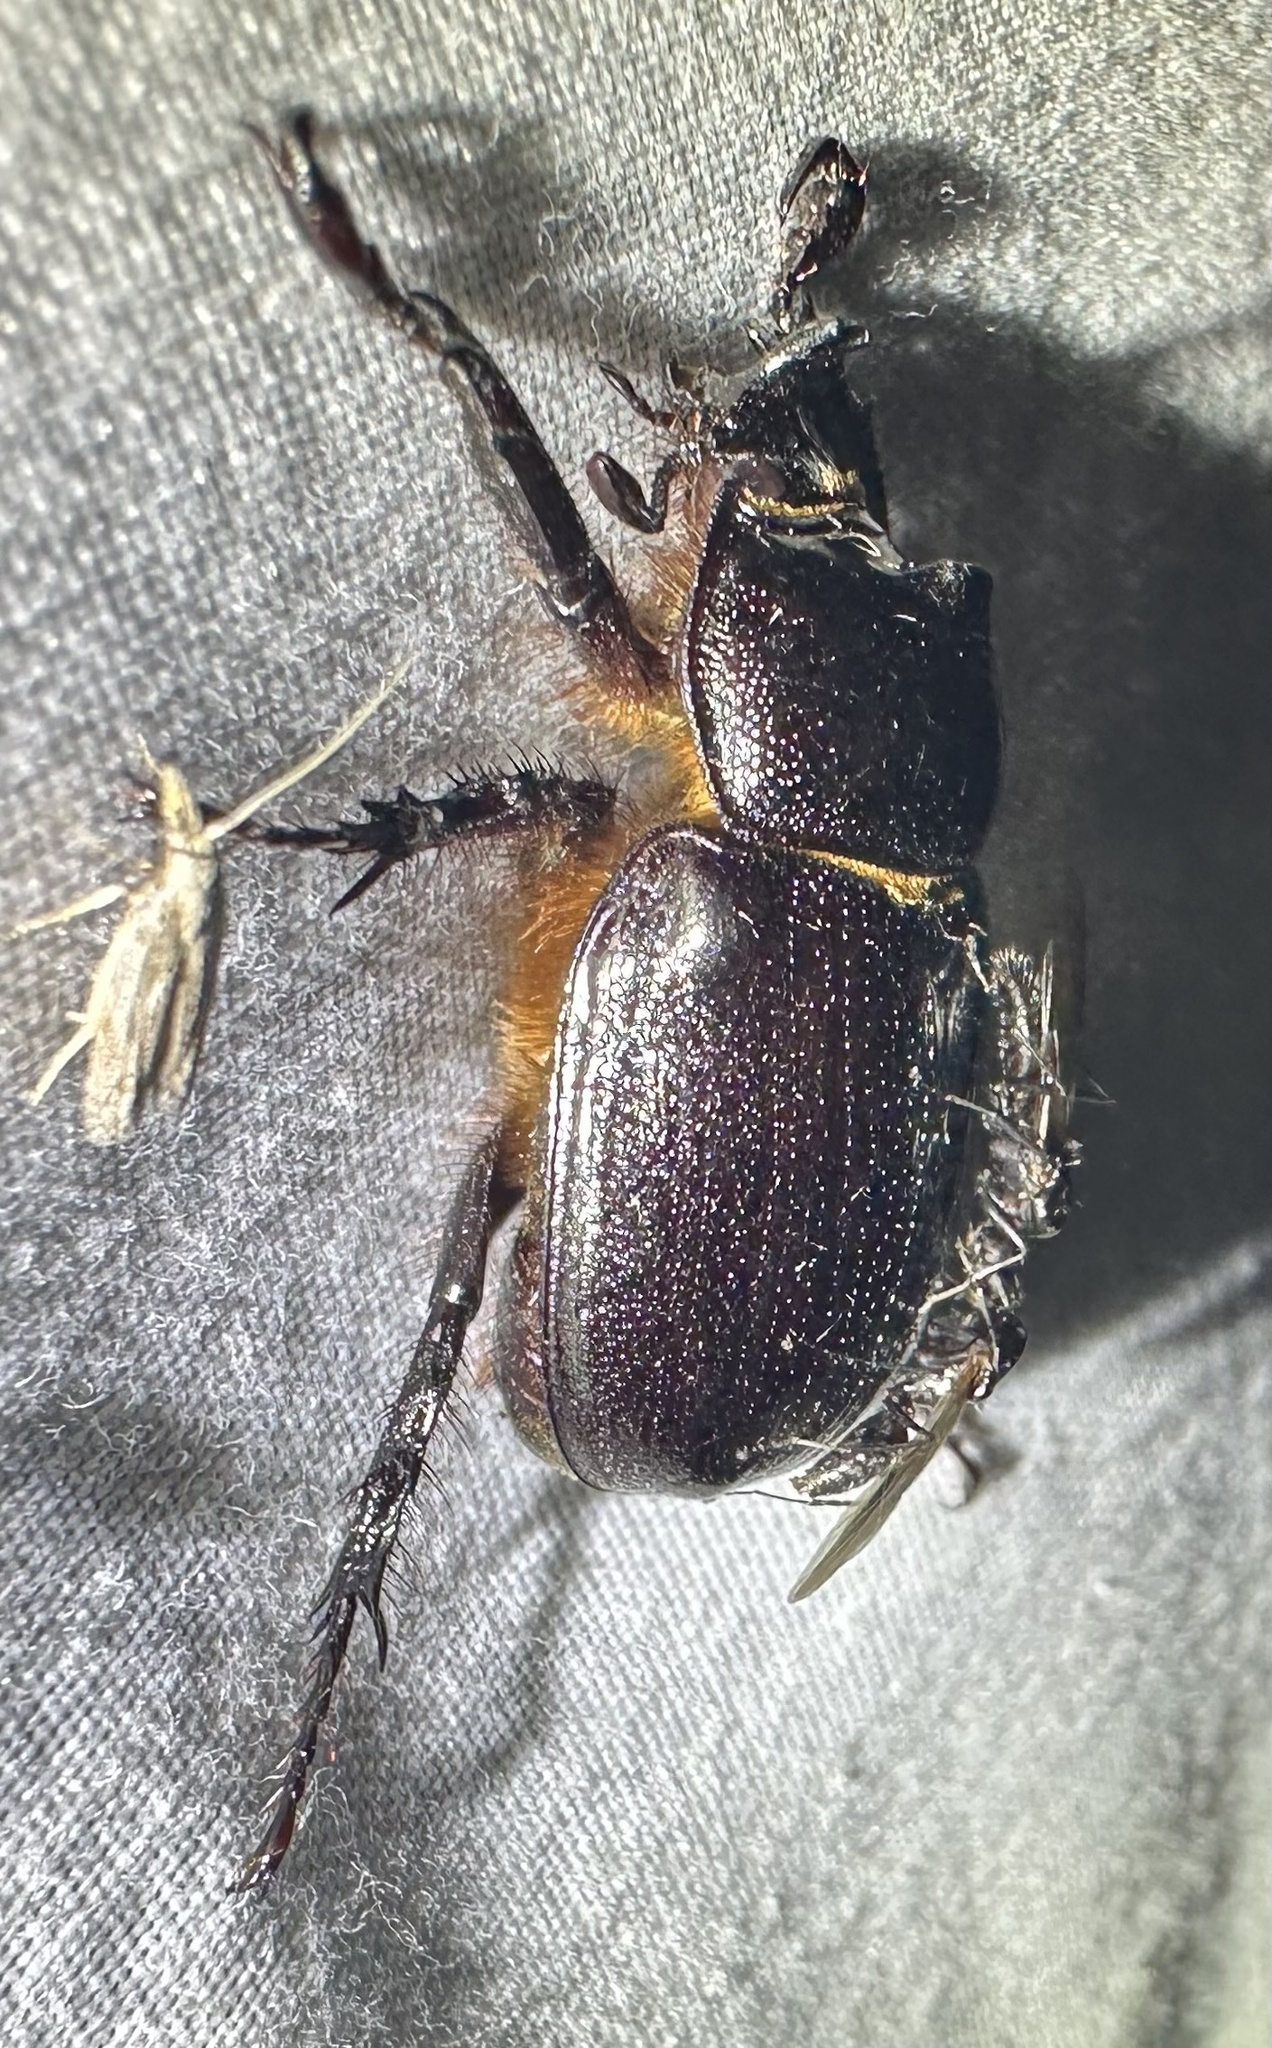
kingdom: Animalia
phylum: Arthropoda
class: Insecta
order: Coleoptera
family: Scarabaeidae
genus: Cyphonistes
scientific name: Cyphonistes vallatus
